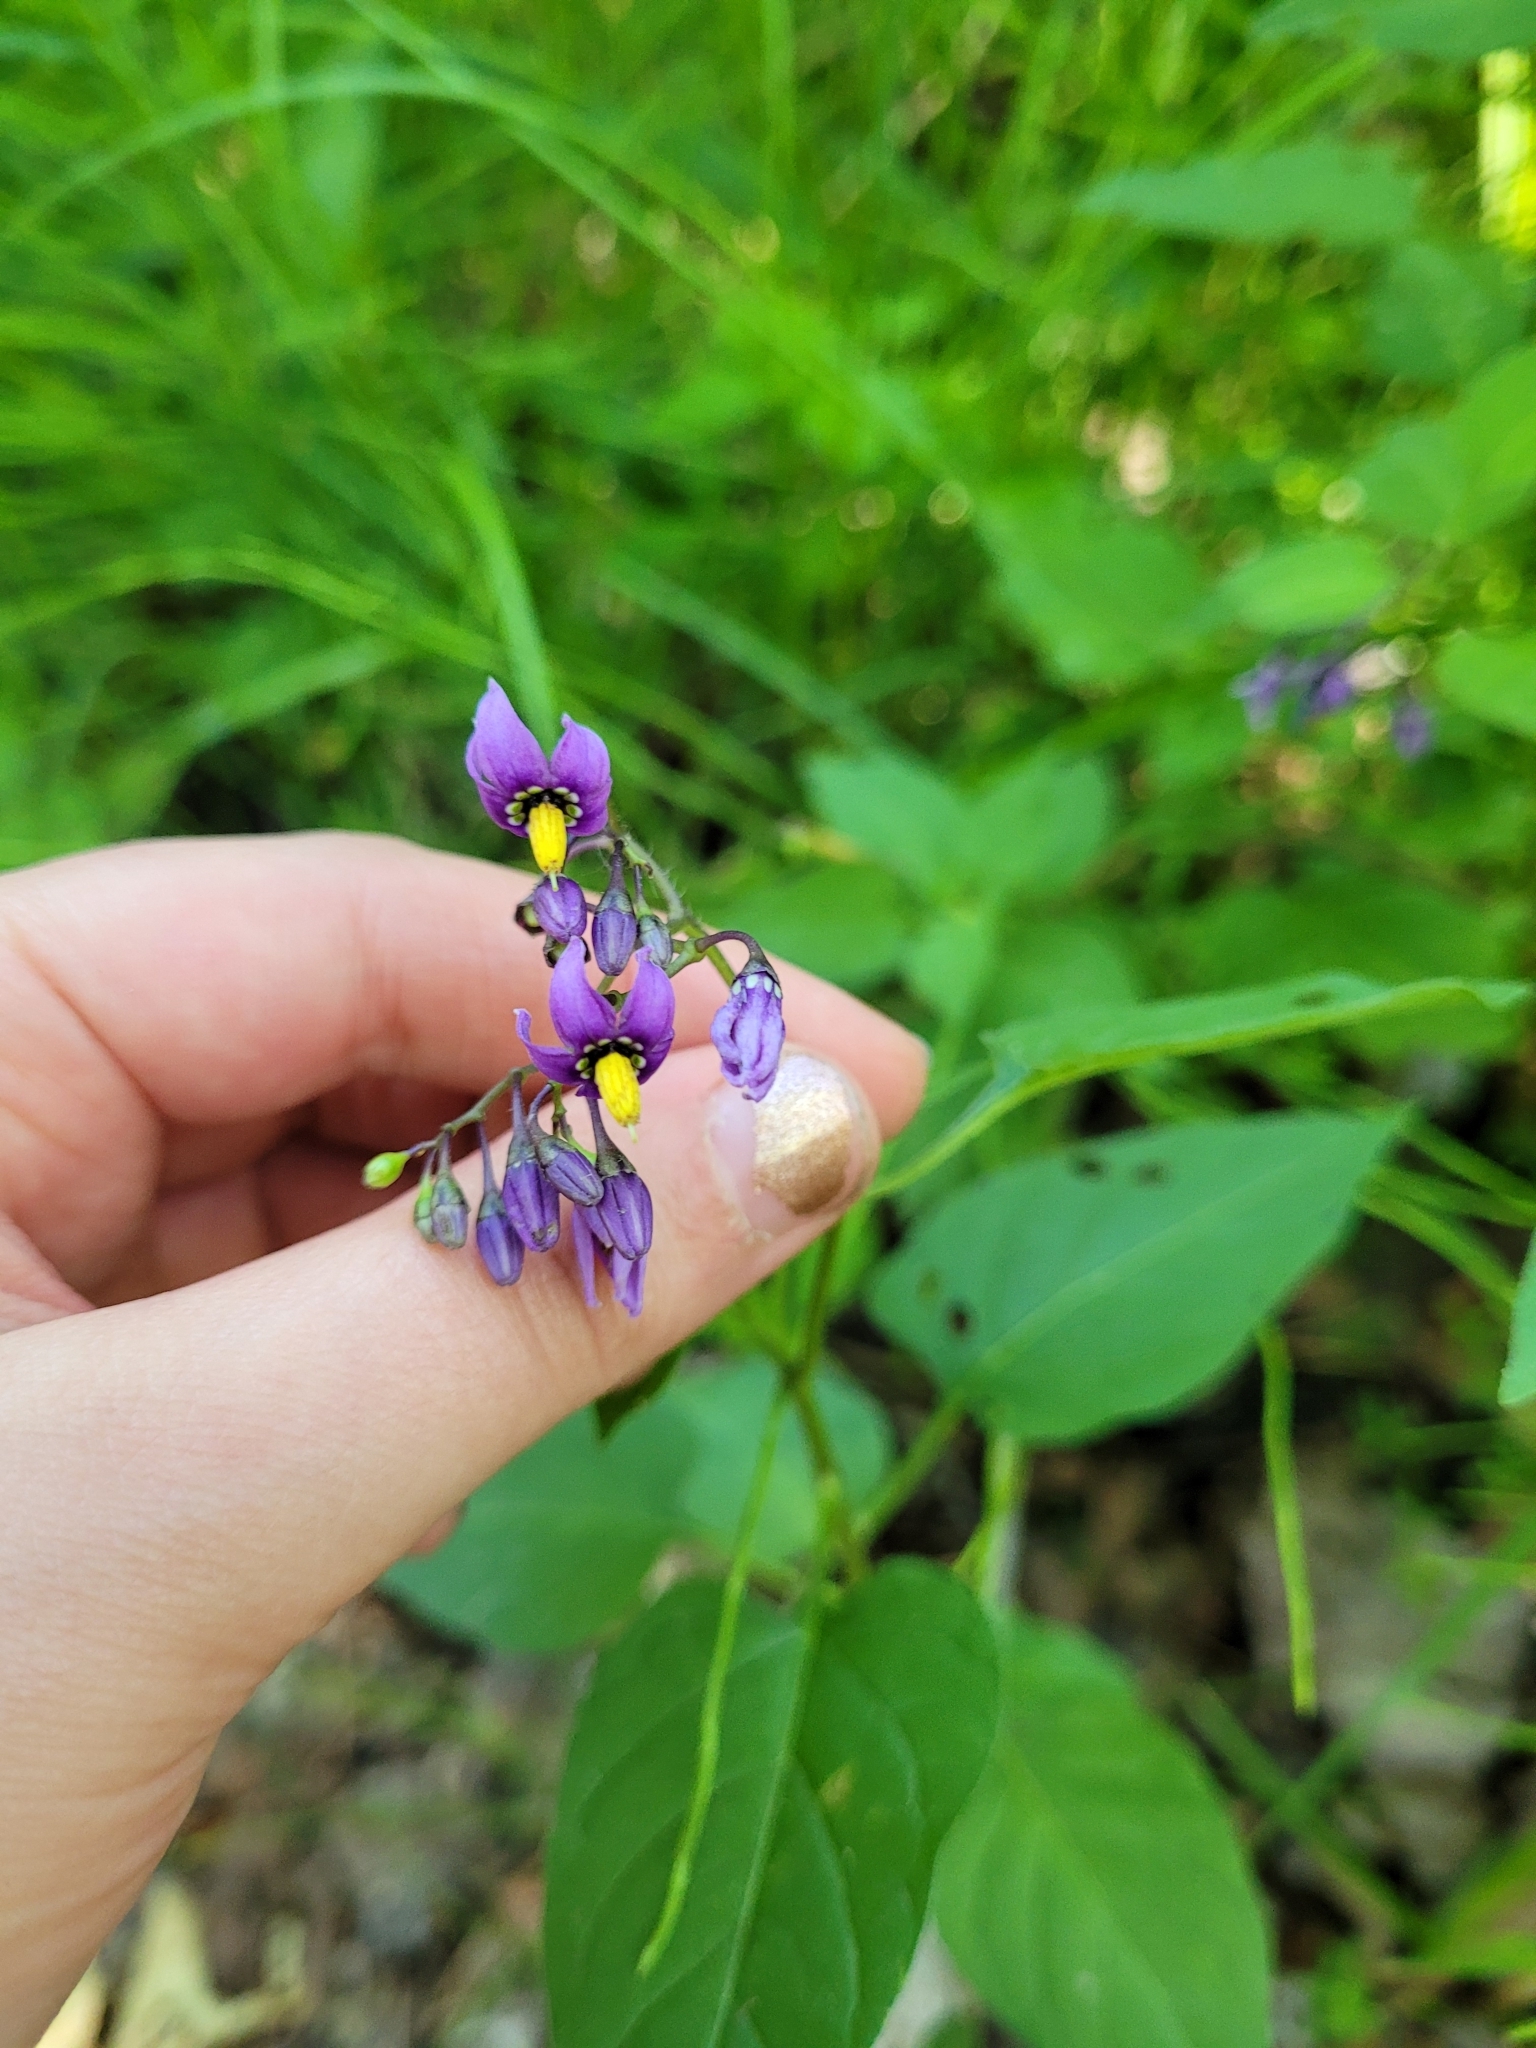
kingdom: Plantae
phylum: Tracheophyta
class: Magnoliopsida
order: Solanales
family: Solanaceae
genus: Solanum
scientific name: Solanum dulcamara
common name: Climbing nightshade
